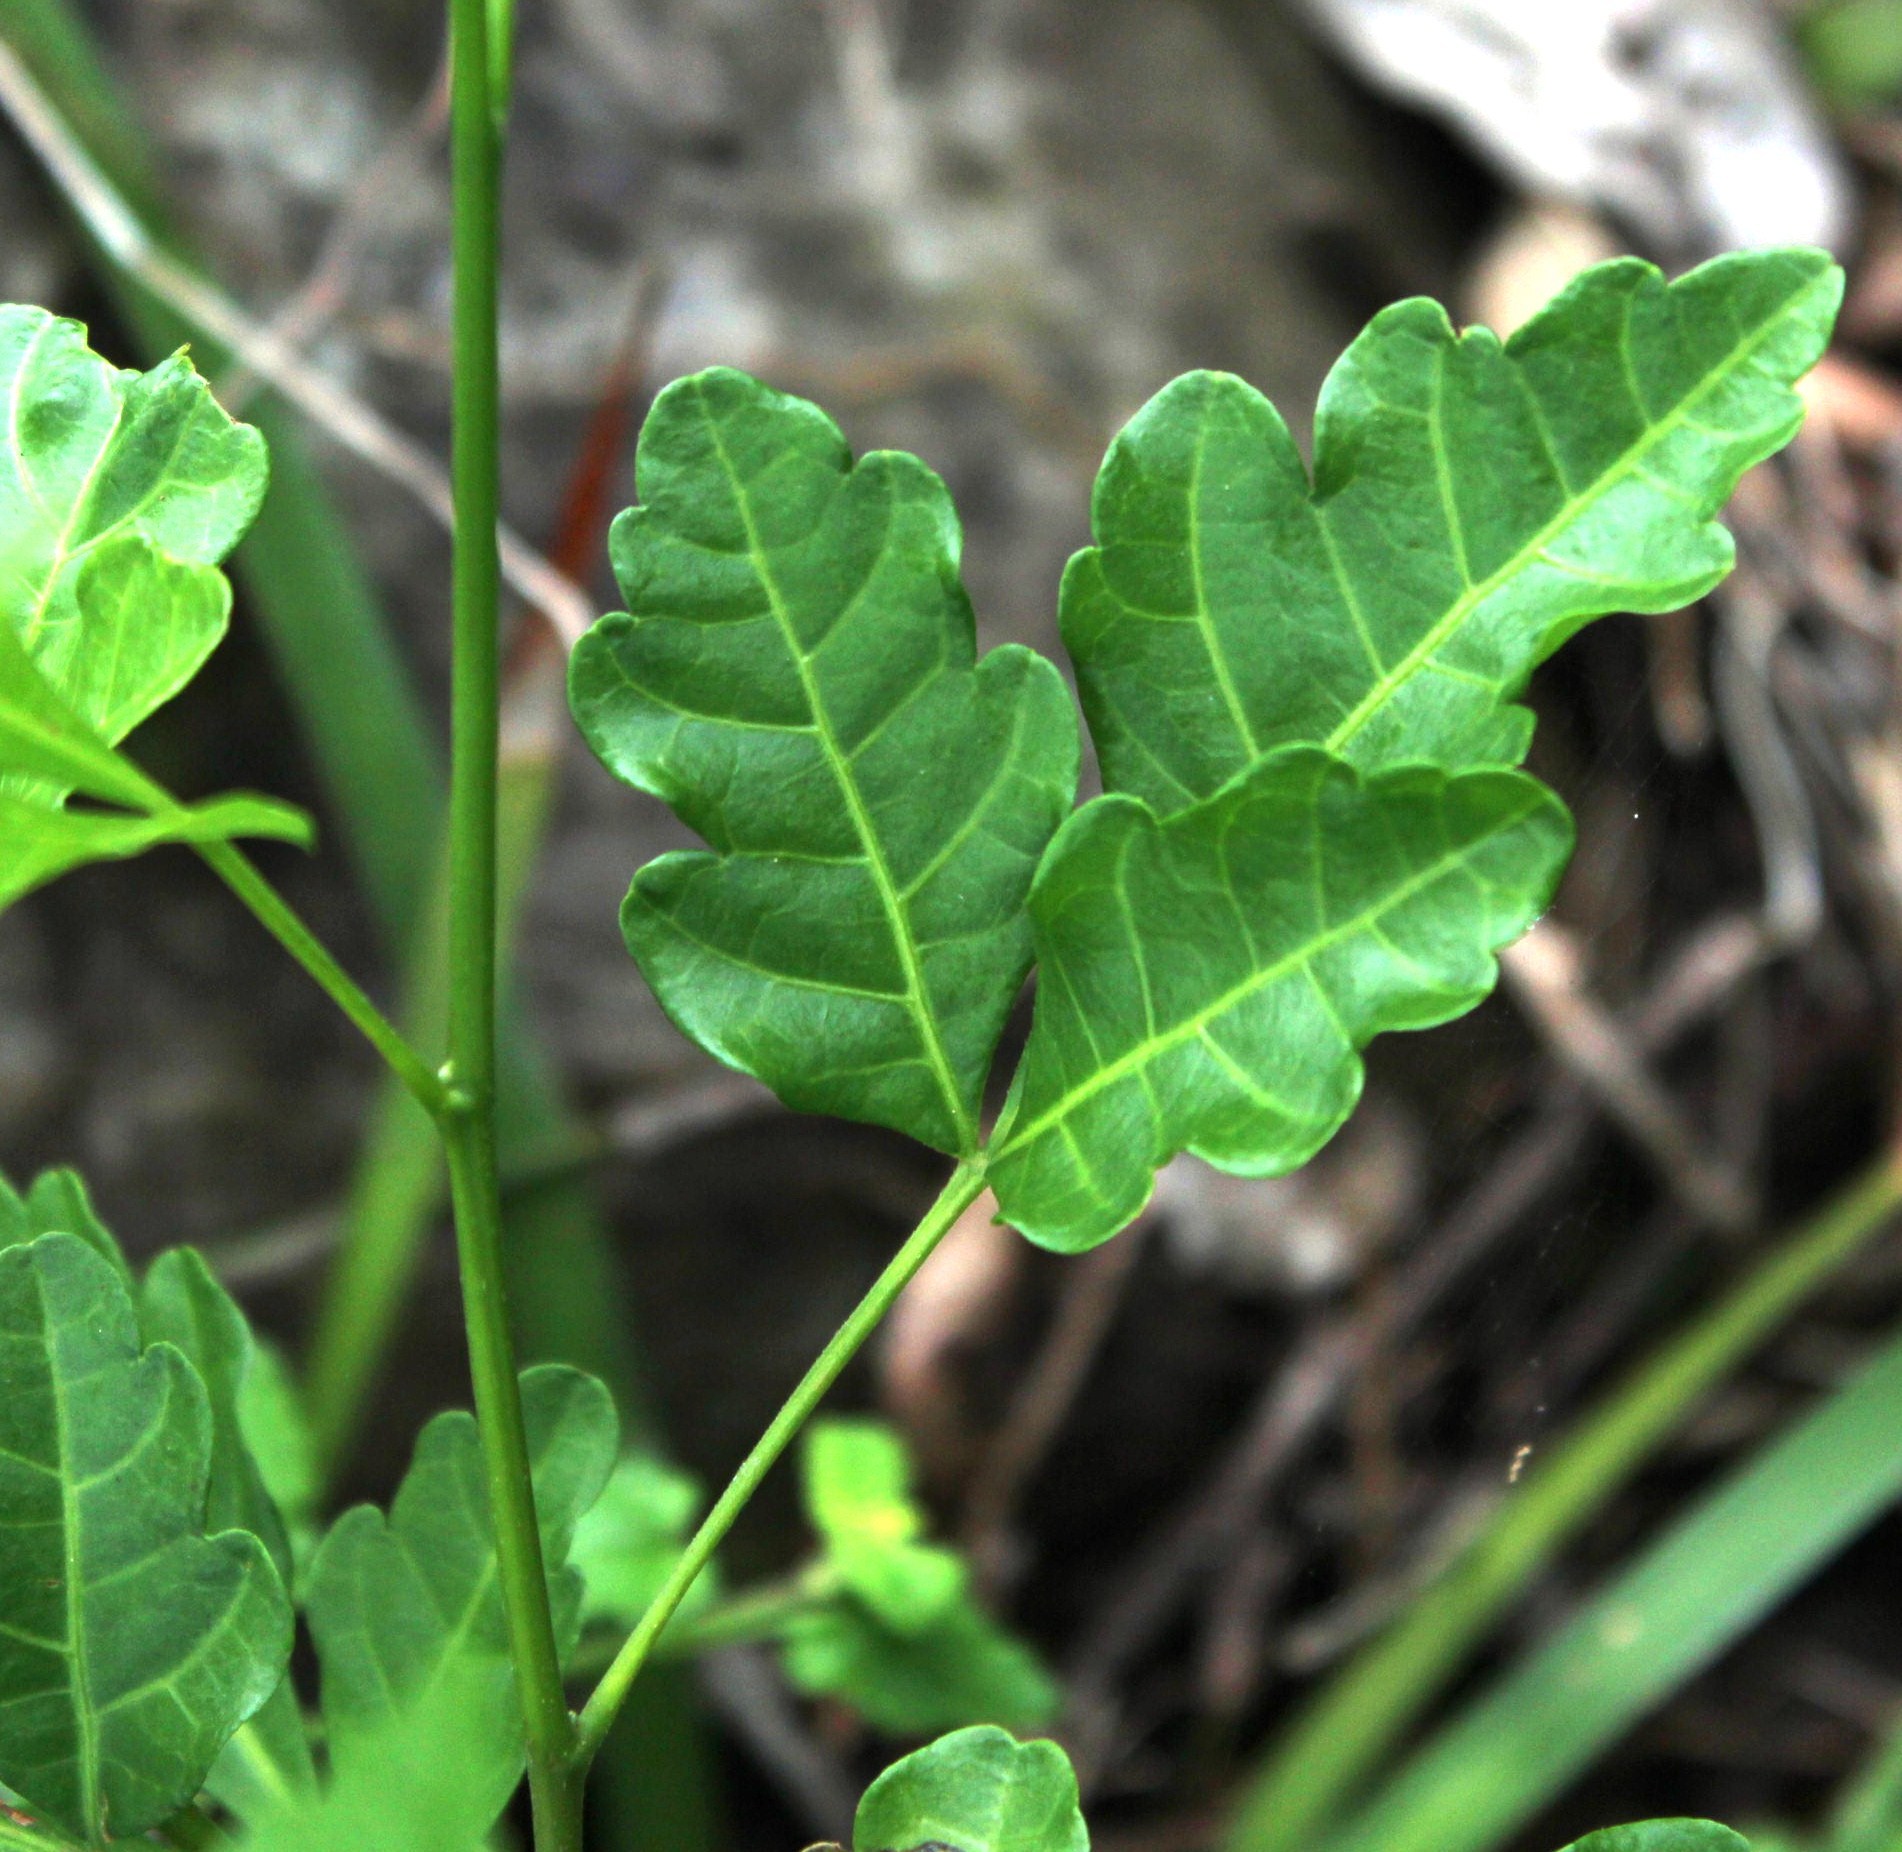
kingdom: Plantae
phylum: Tracheophyta
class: Magnoliopsida
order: Sapindales
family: Sapindaceae
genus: Allophylus
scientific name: Allophylus decipiens
